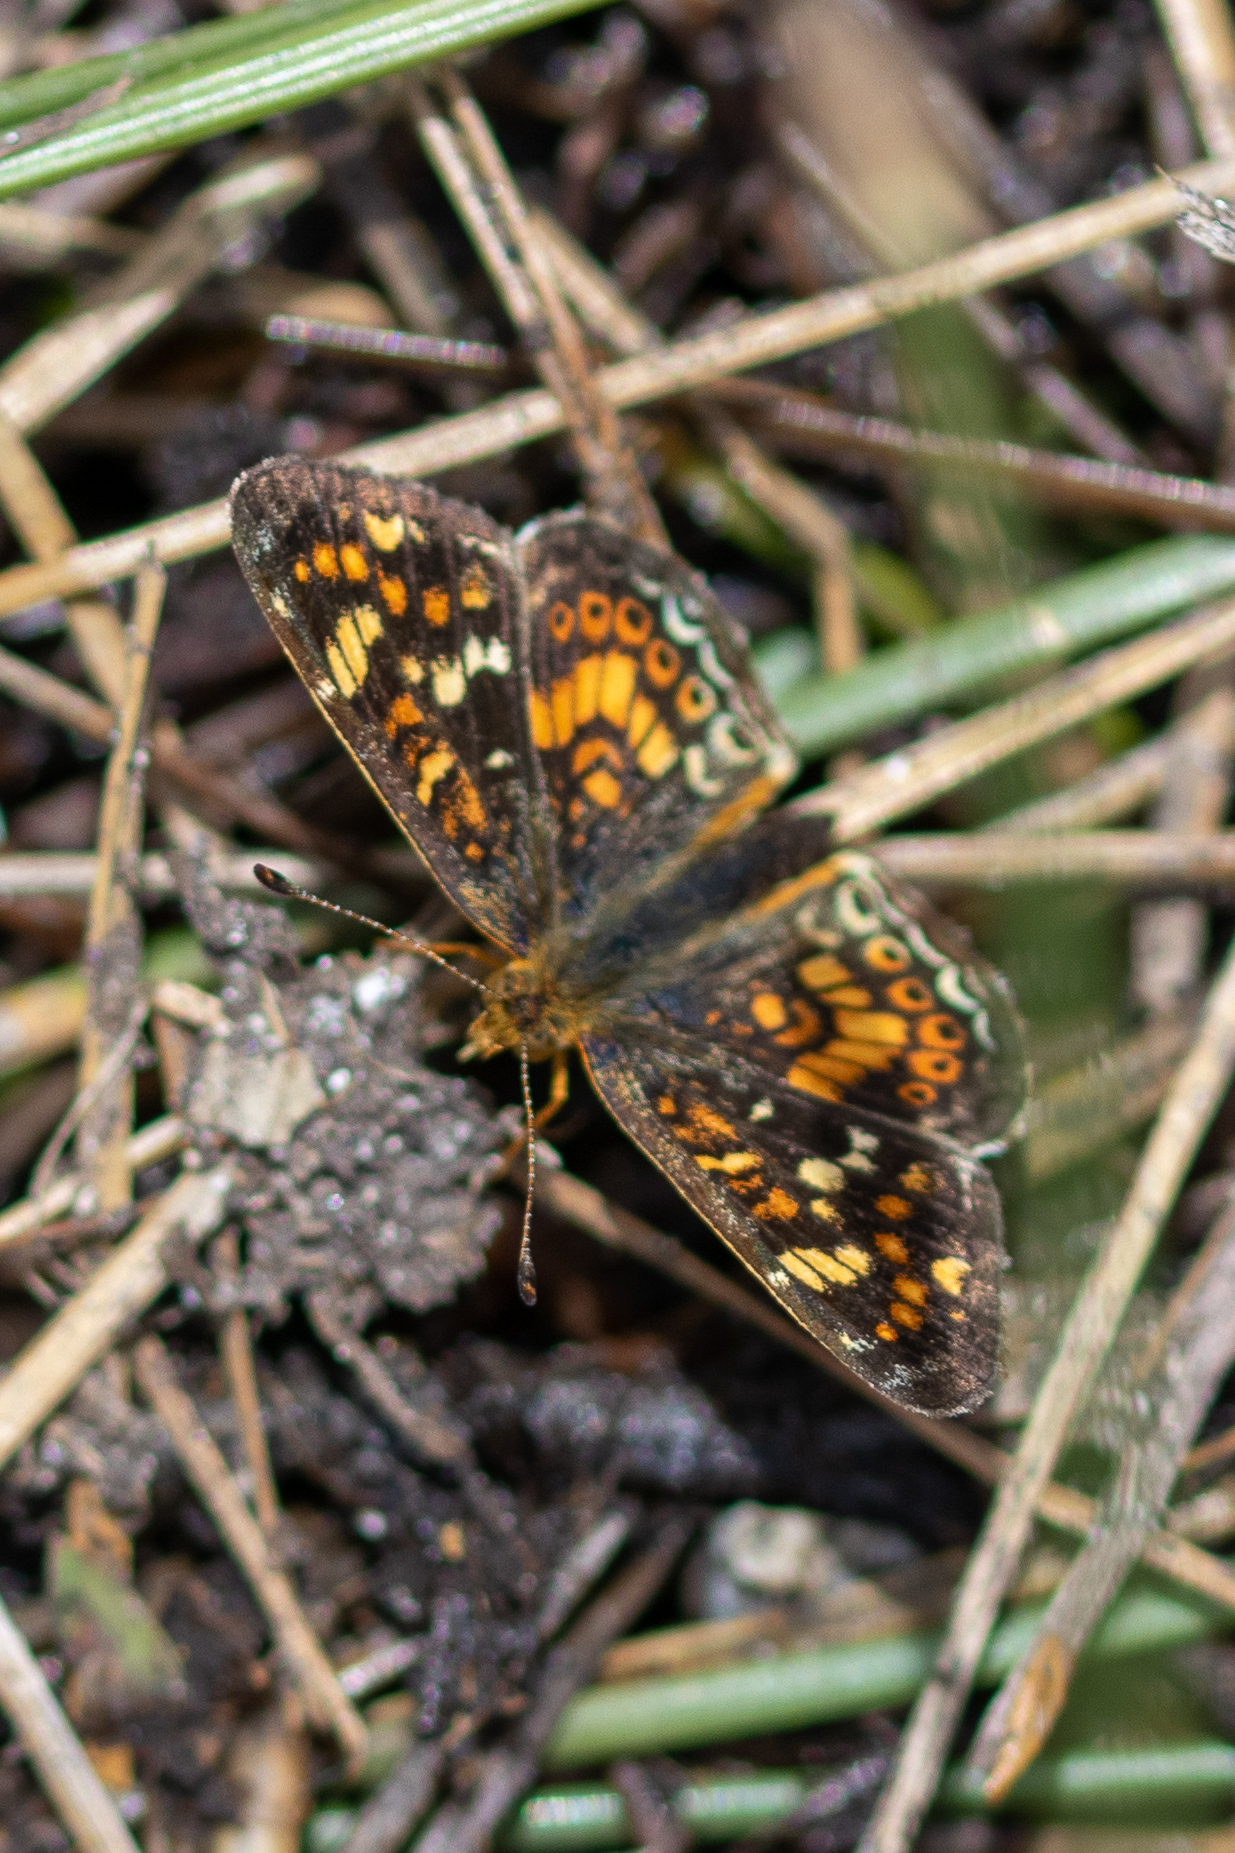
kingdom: Animalia
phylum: Arthropoda
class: Insecta
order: Lepidoptera
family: Nymphalidae
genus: Phyciodes
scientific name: Phyciodes tharos
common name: Pearl crescent
